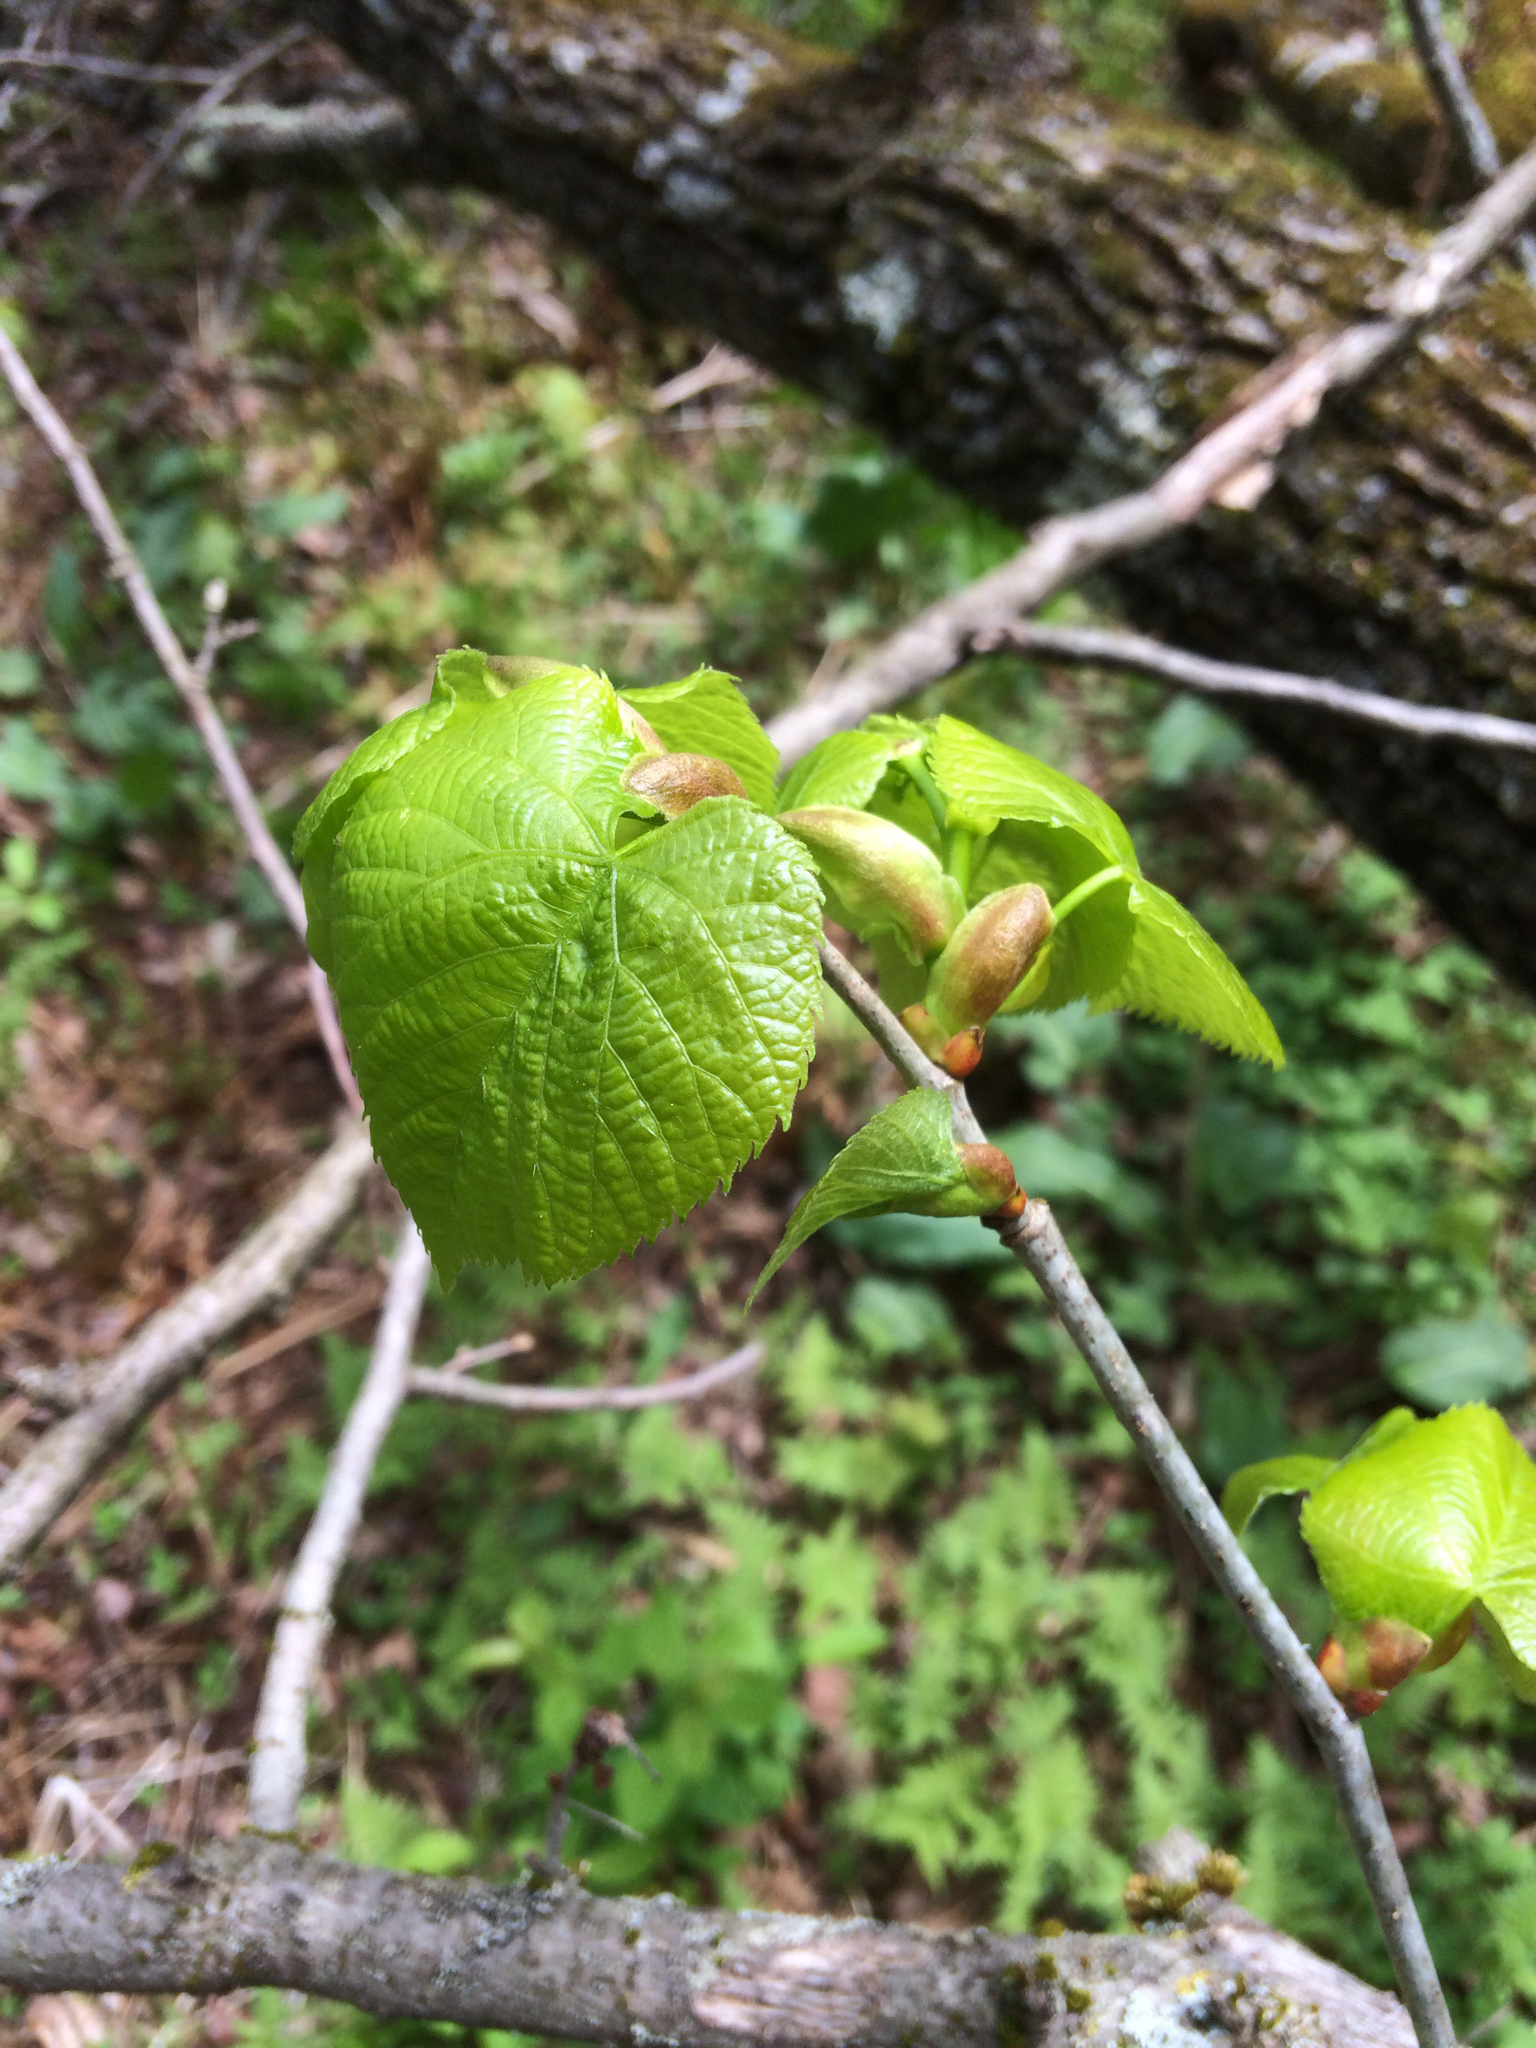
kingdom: Plantae
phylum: Tracheophyta
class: Magnoliopsida
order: Malvales
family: Malvaceae
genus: Tilia
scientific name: Tilia americana
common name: Basswood
